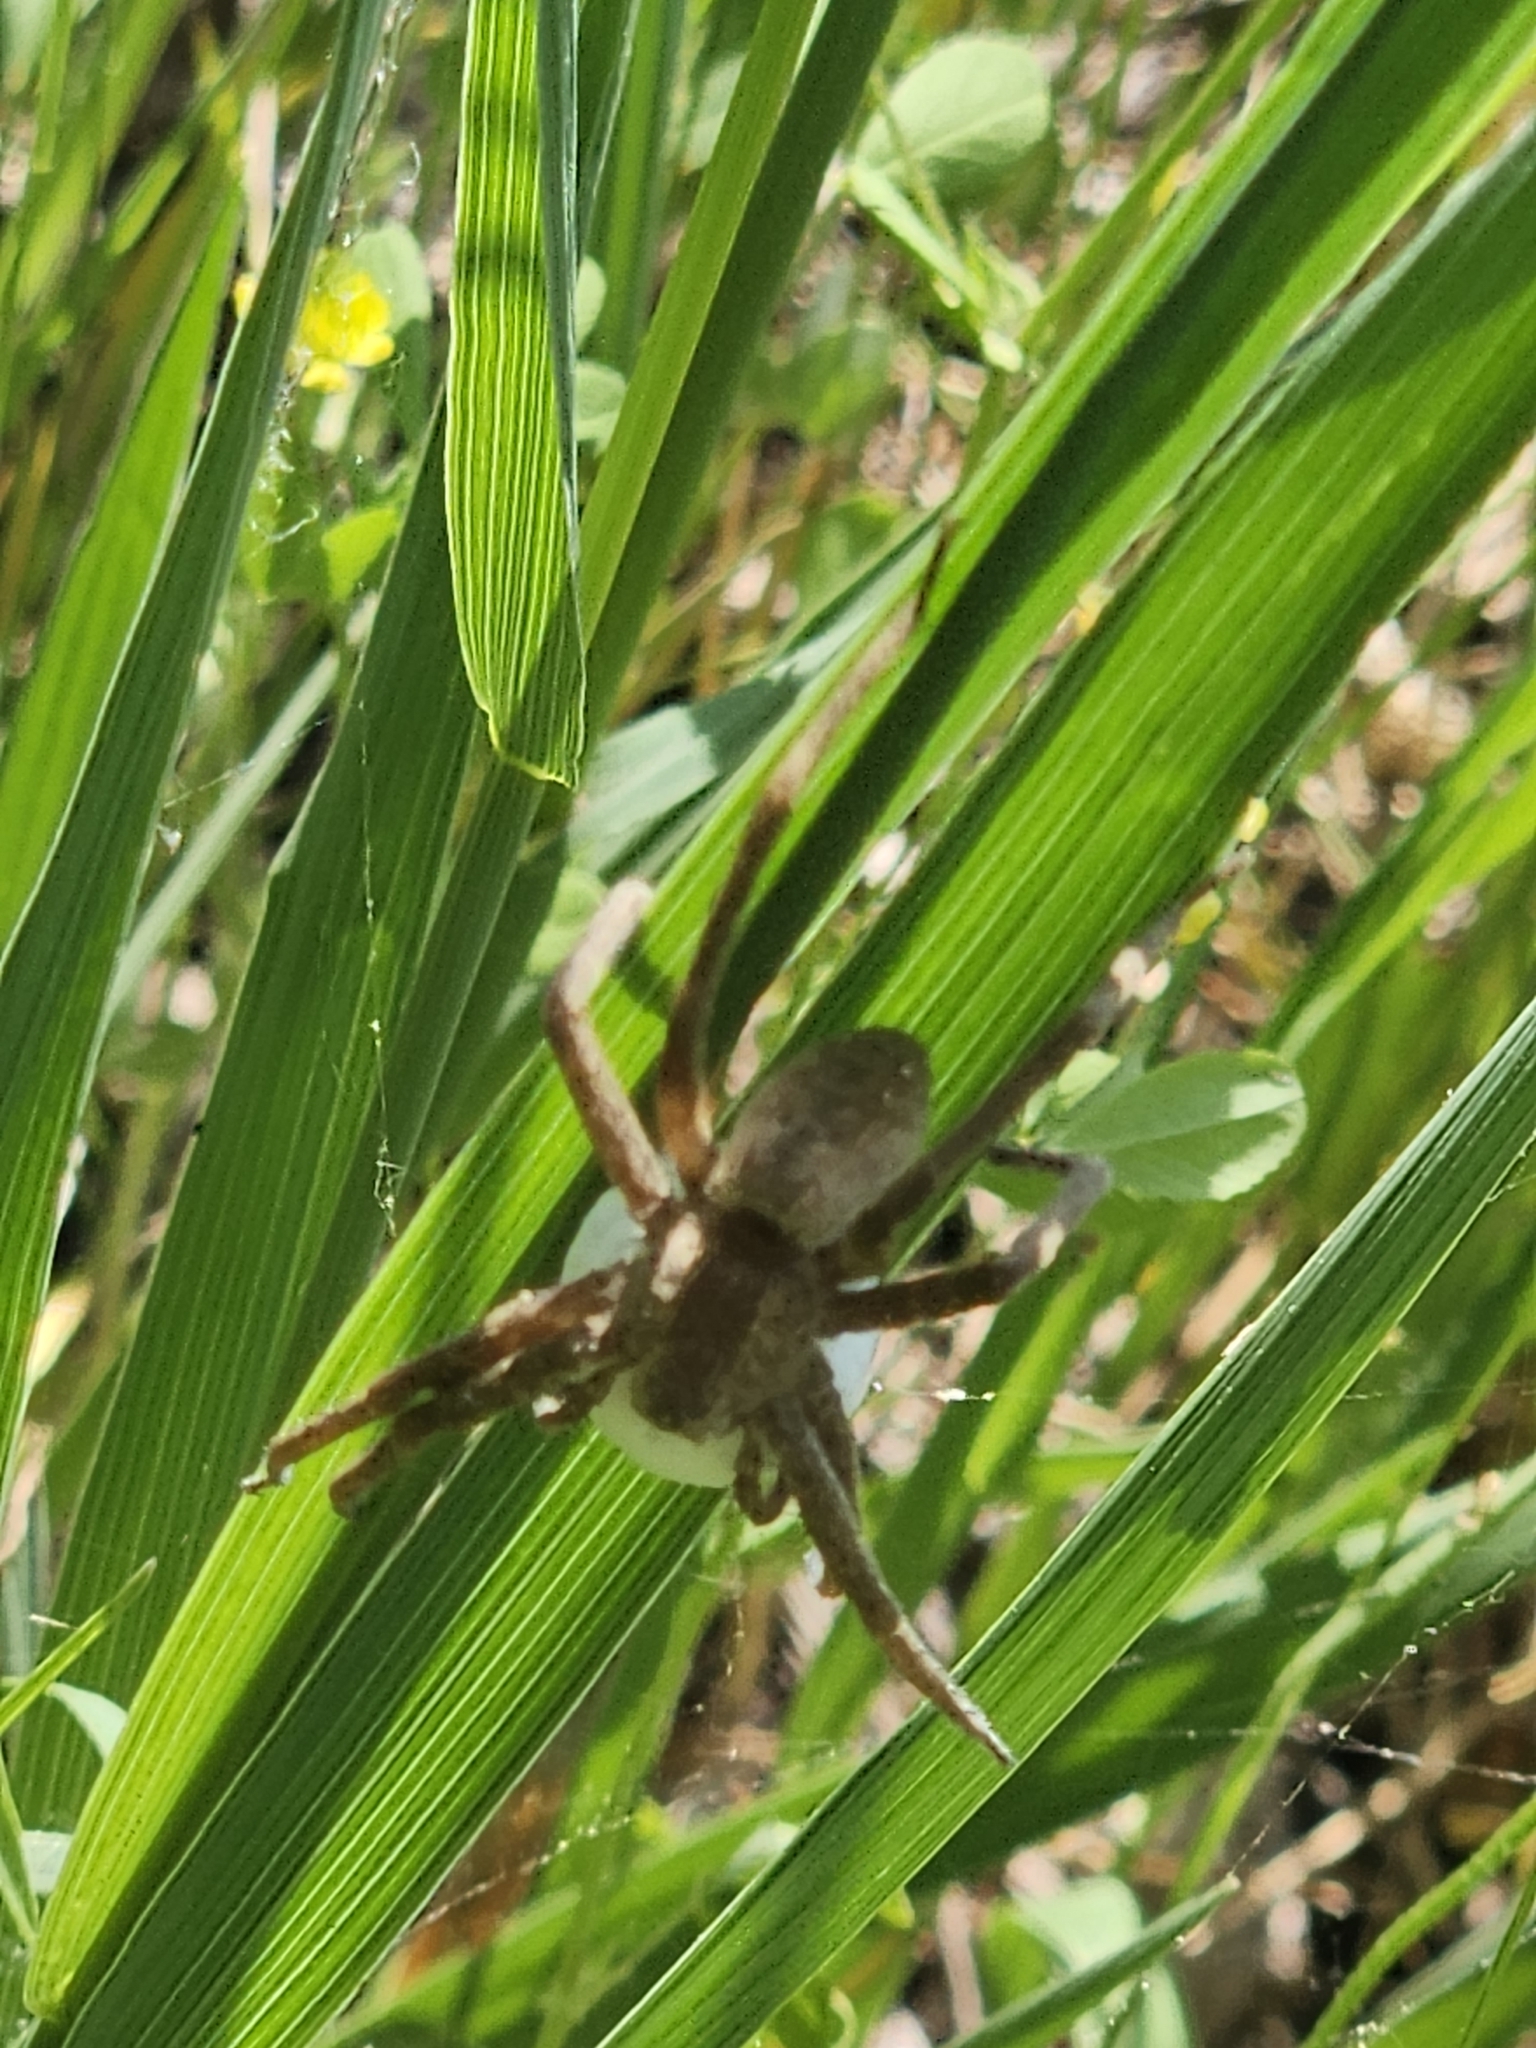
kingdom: Animalia
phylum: Arthropoda
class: Arachnida
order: Araneae
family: Pisauridae
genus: Pisaurina
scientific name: Pisaurina mira
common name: American nursery web spider
